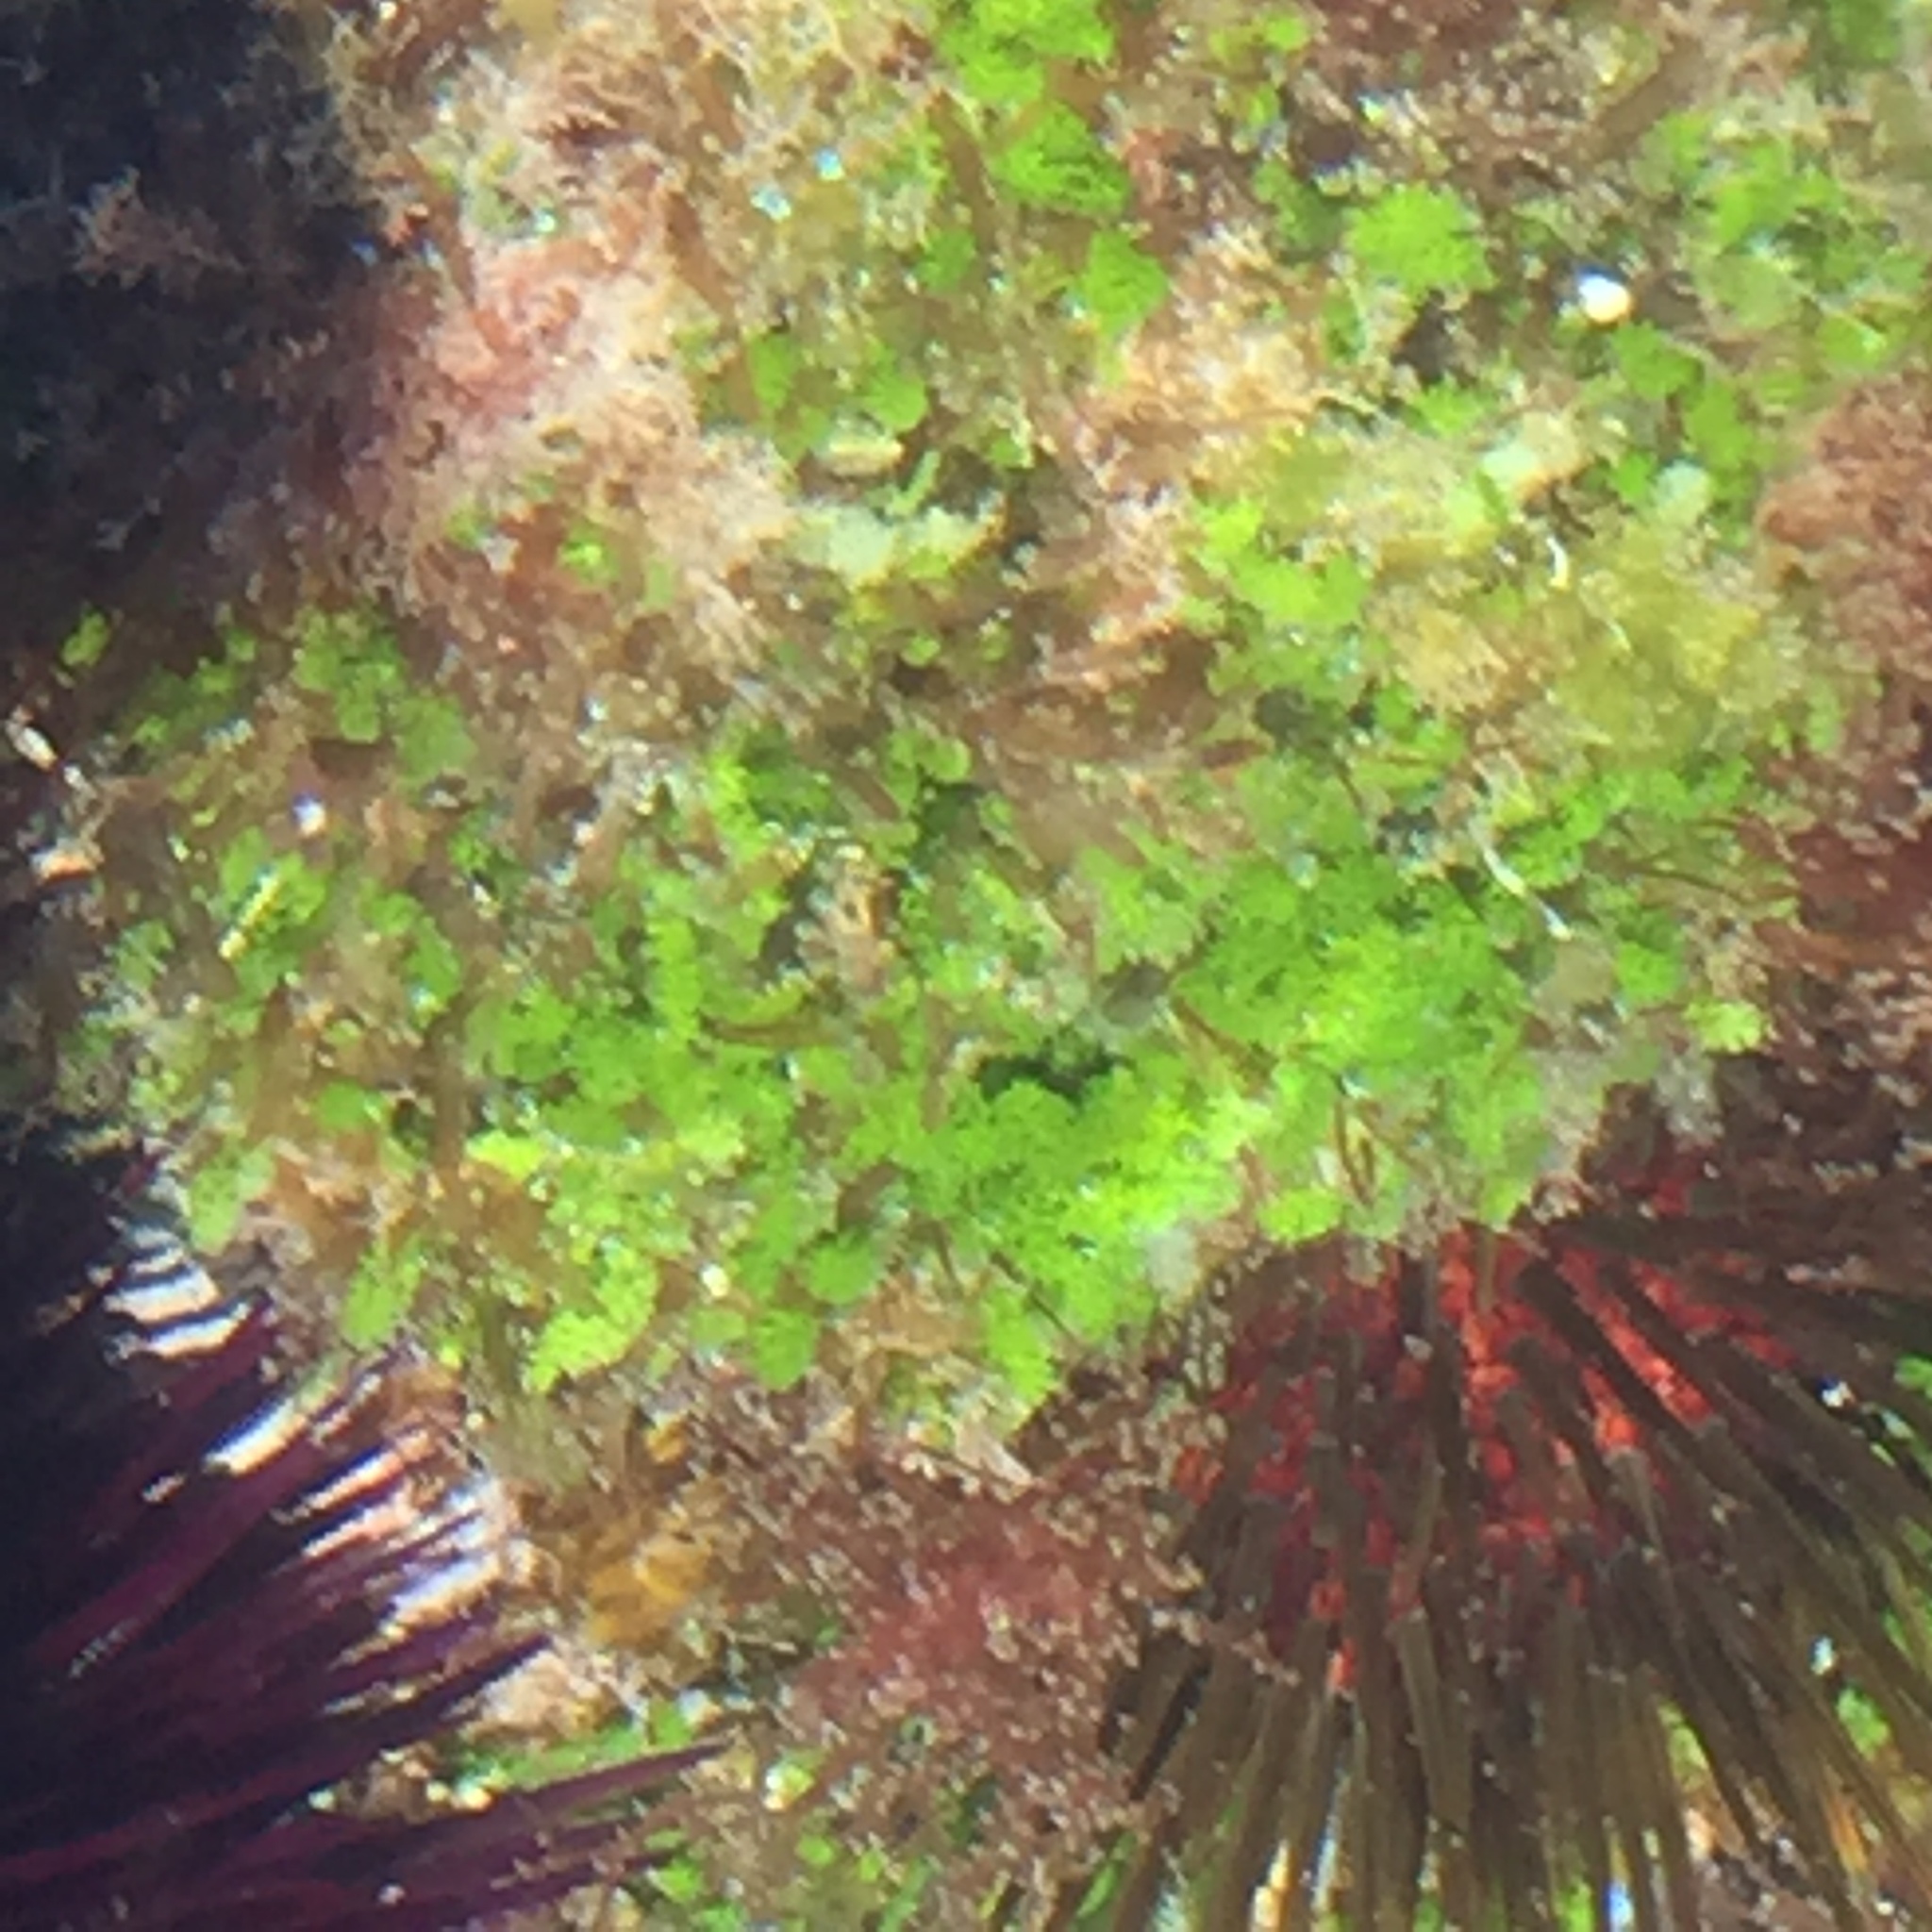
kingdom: Animalia
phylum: Echinodermata
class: Echinoidea
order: Camarodonta
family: Parechinidae
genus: Paracentrotus
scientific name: Paracentrotus lividus
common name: Purple sea urchin
